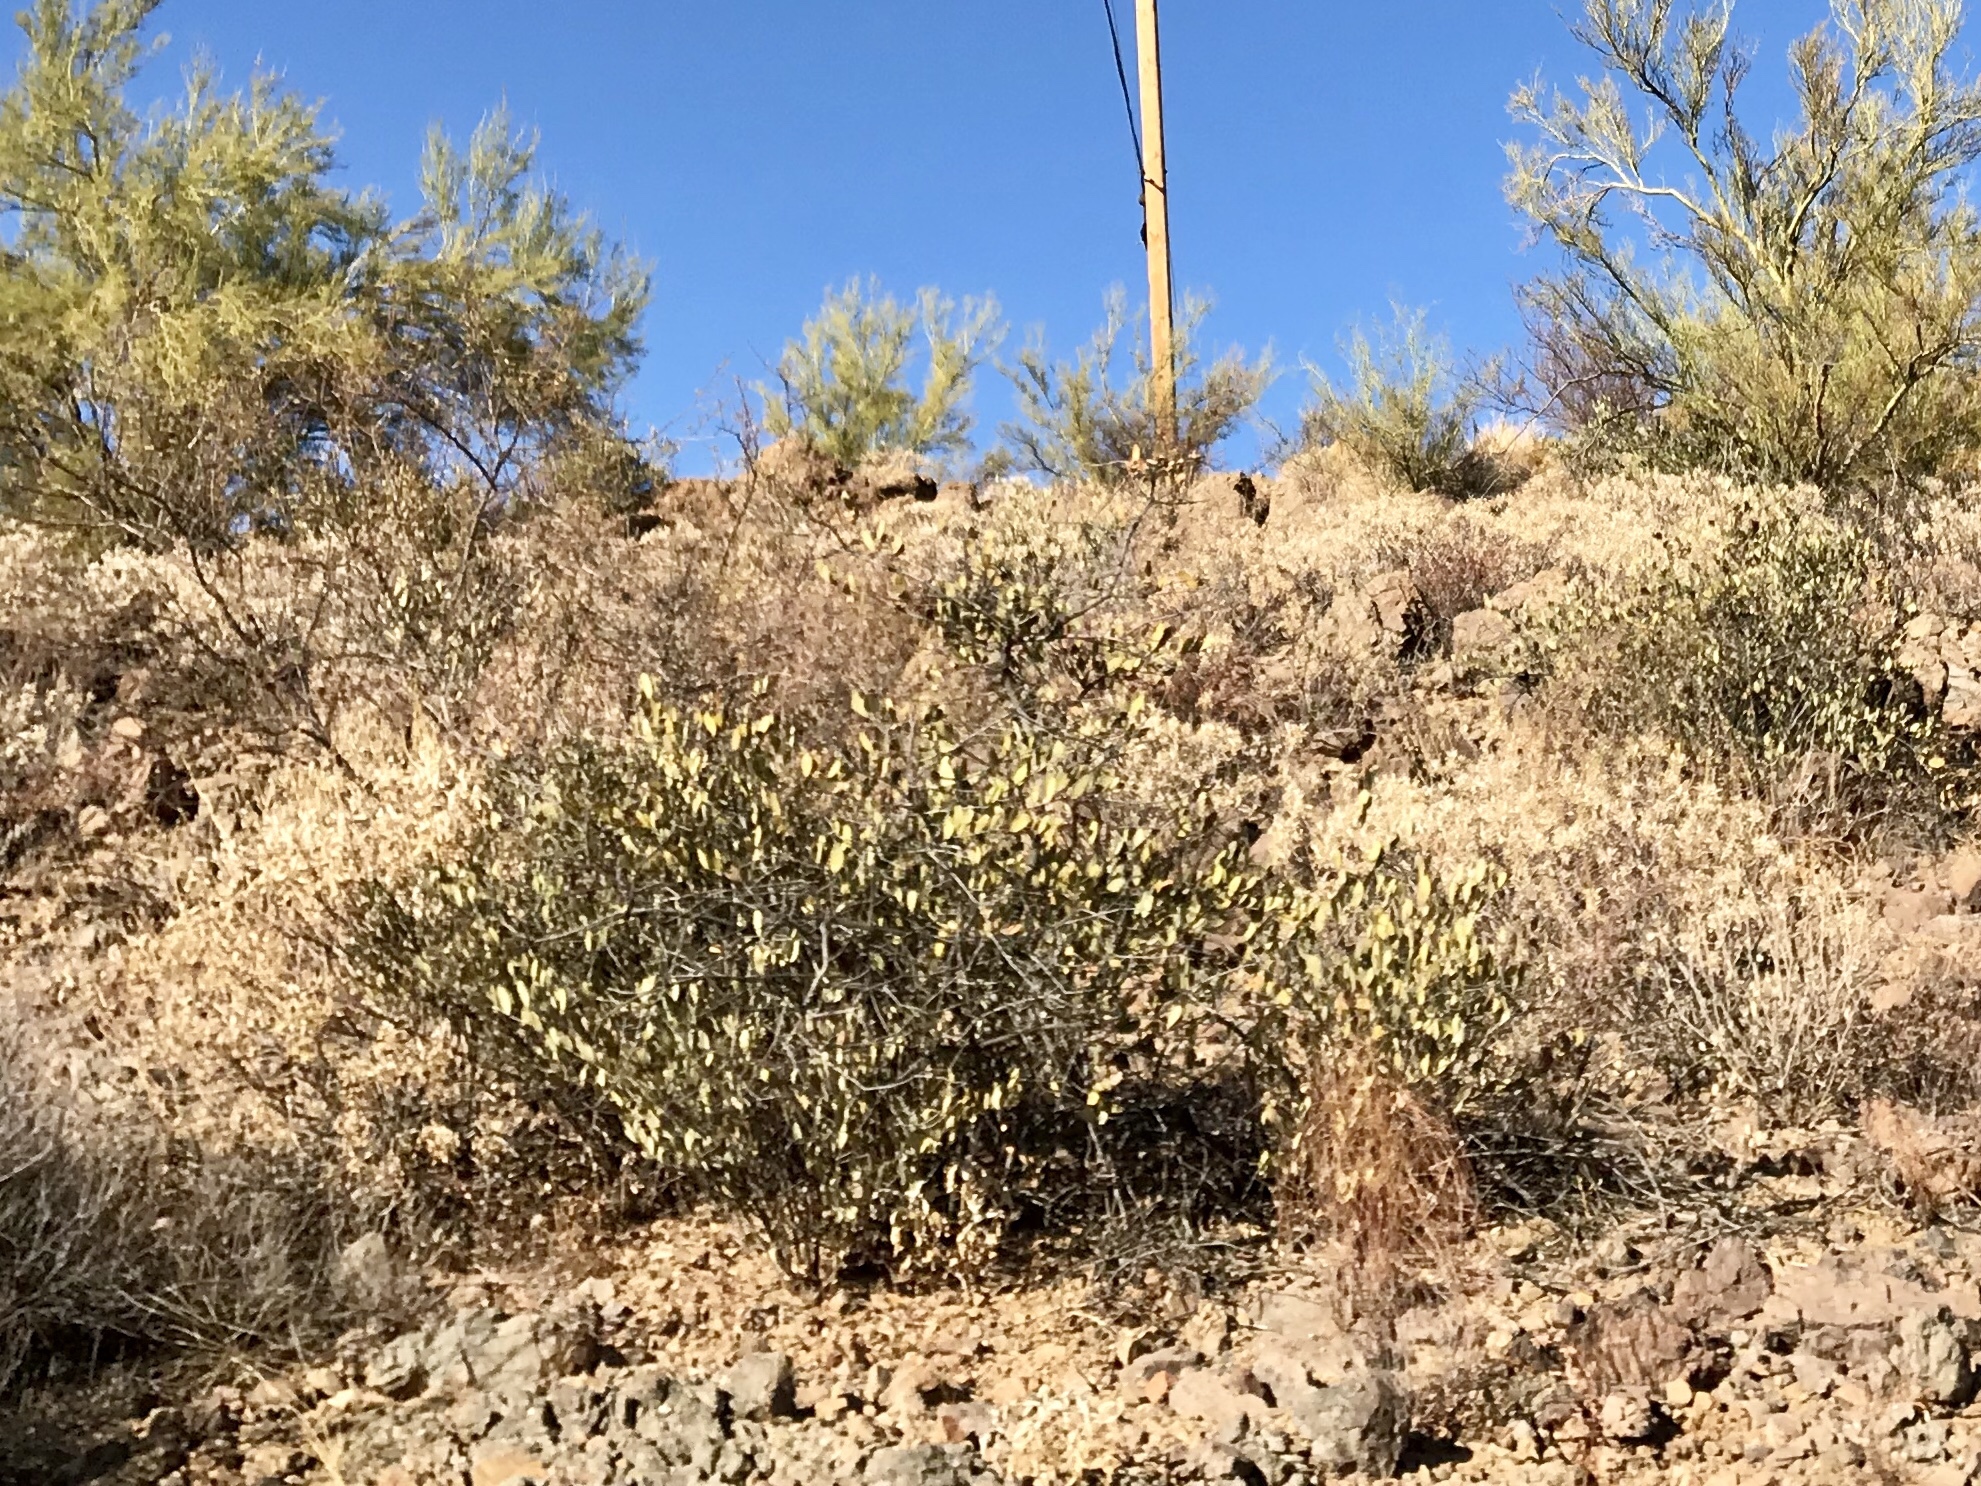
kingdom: Plantae
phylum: Tracheophyta
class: Magnoliopsida
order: Caryophyllales
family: Simmondsiaceae
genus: Simmondsia
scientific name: Simmondsia chinensis
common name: Jojoba
